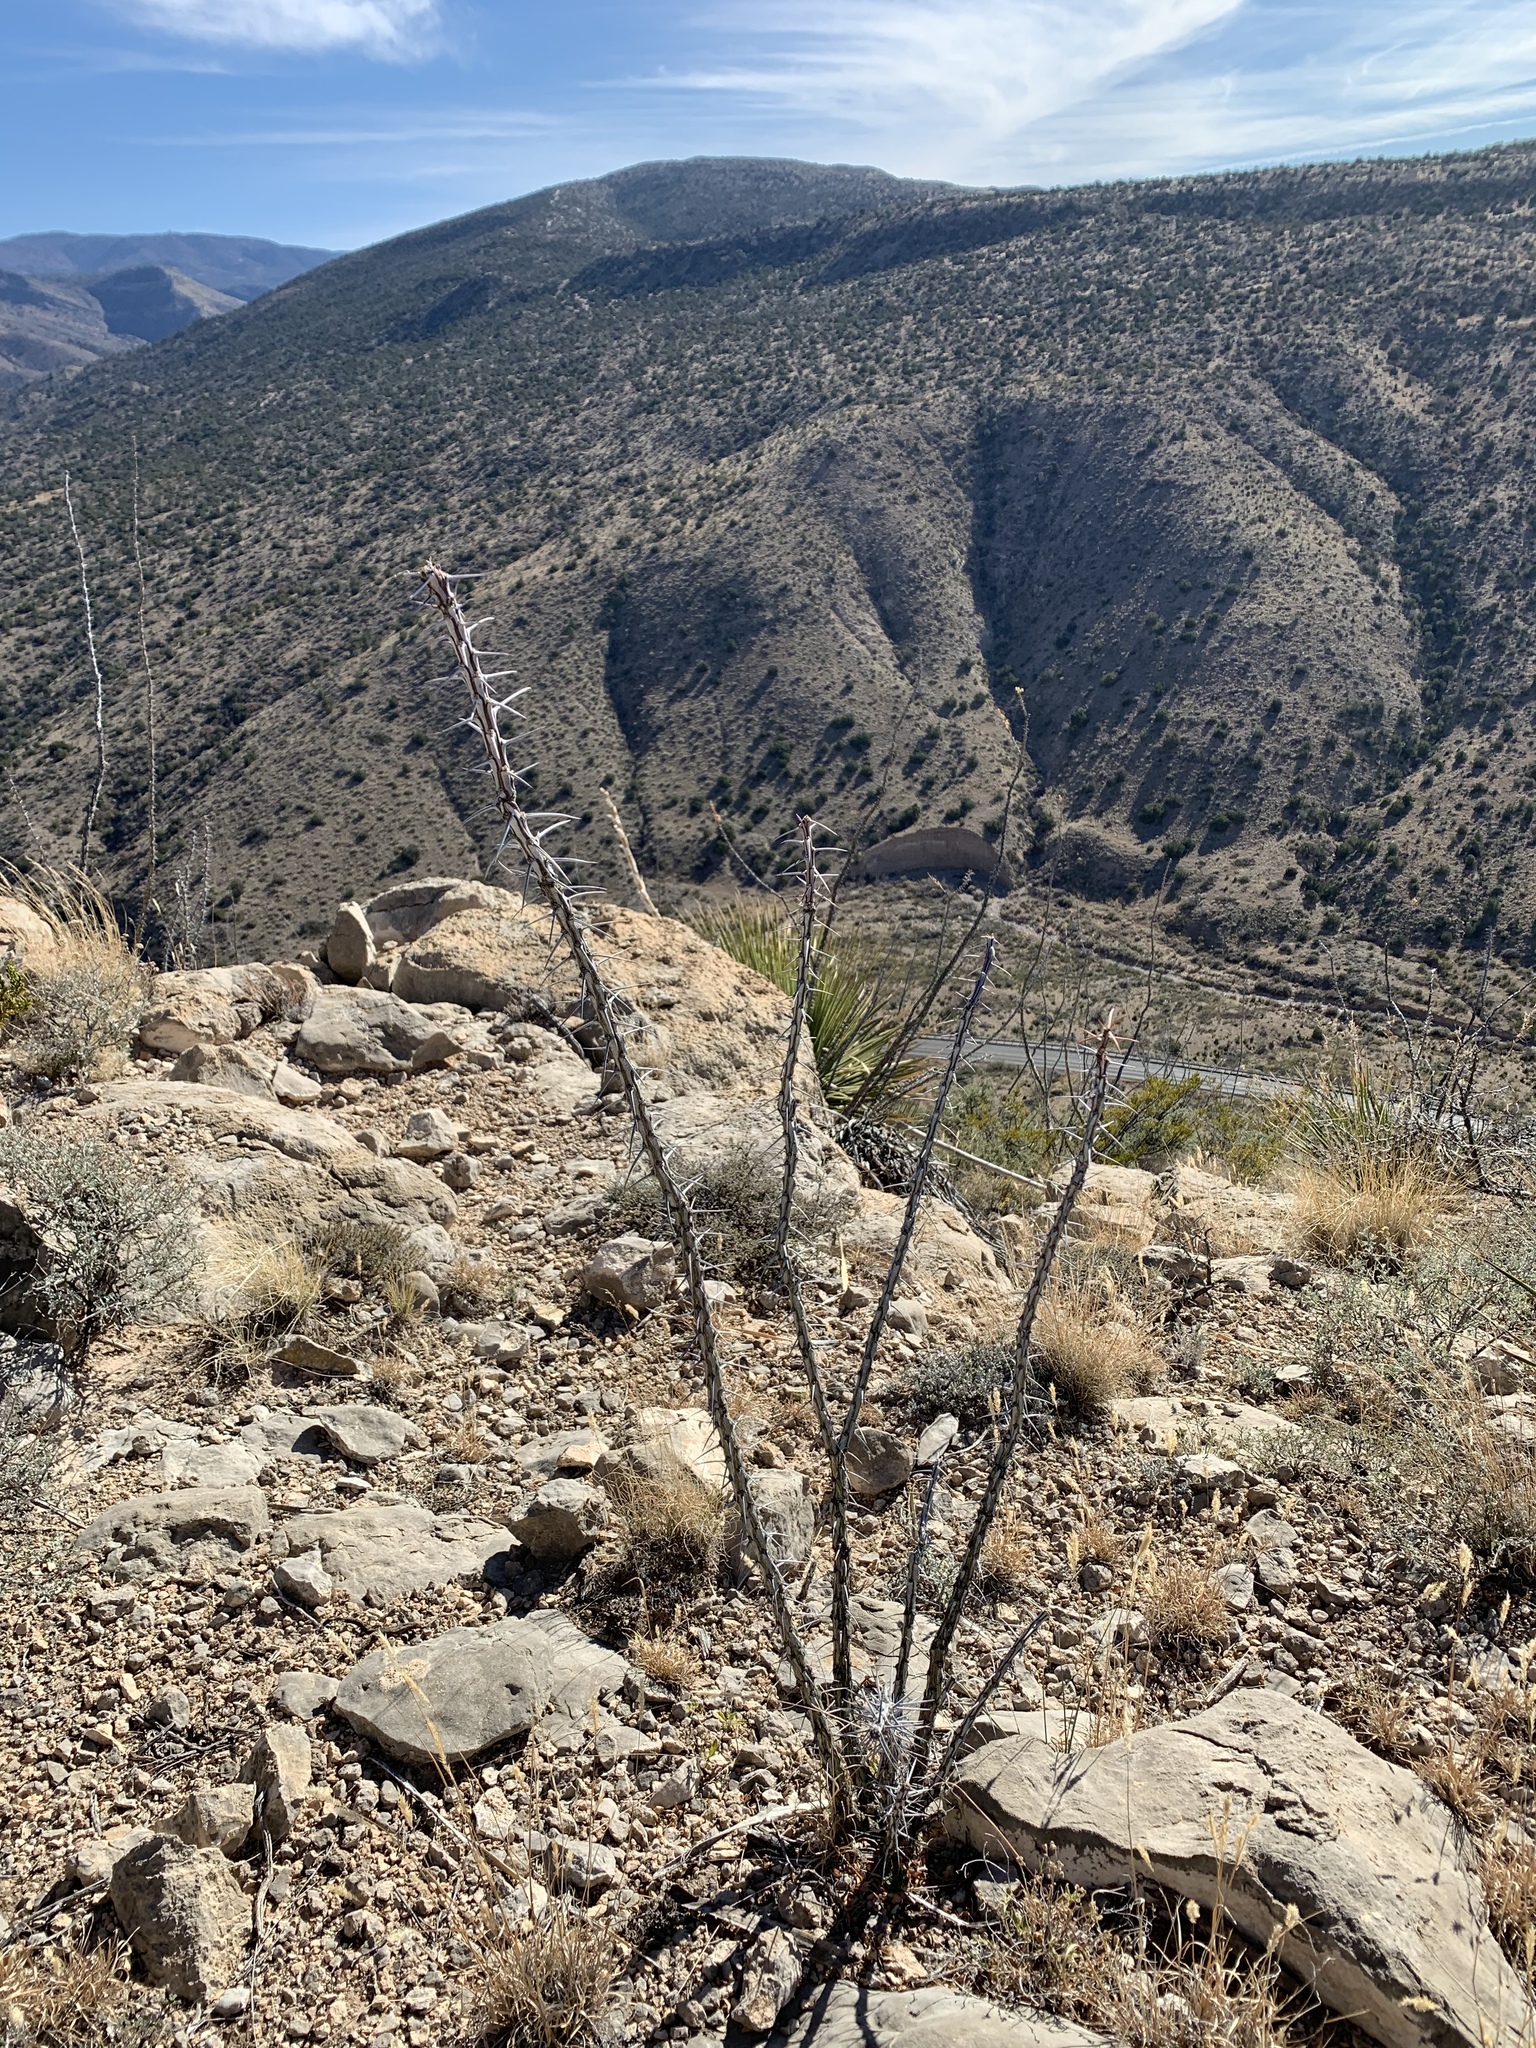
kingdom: Plantae
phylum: Tracheophyta
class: Magnoliopsida
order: Ericales
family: Fouquieriaceae
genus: Fouquieria
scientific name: Fouquieria splendens
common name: Vine-cactus
